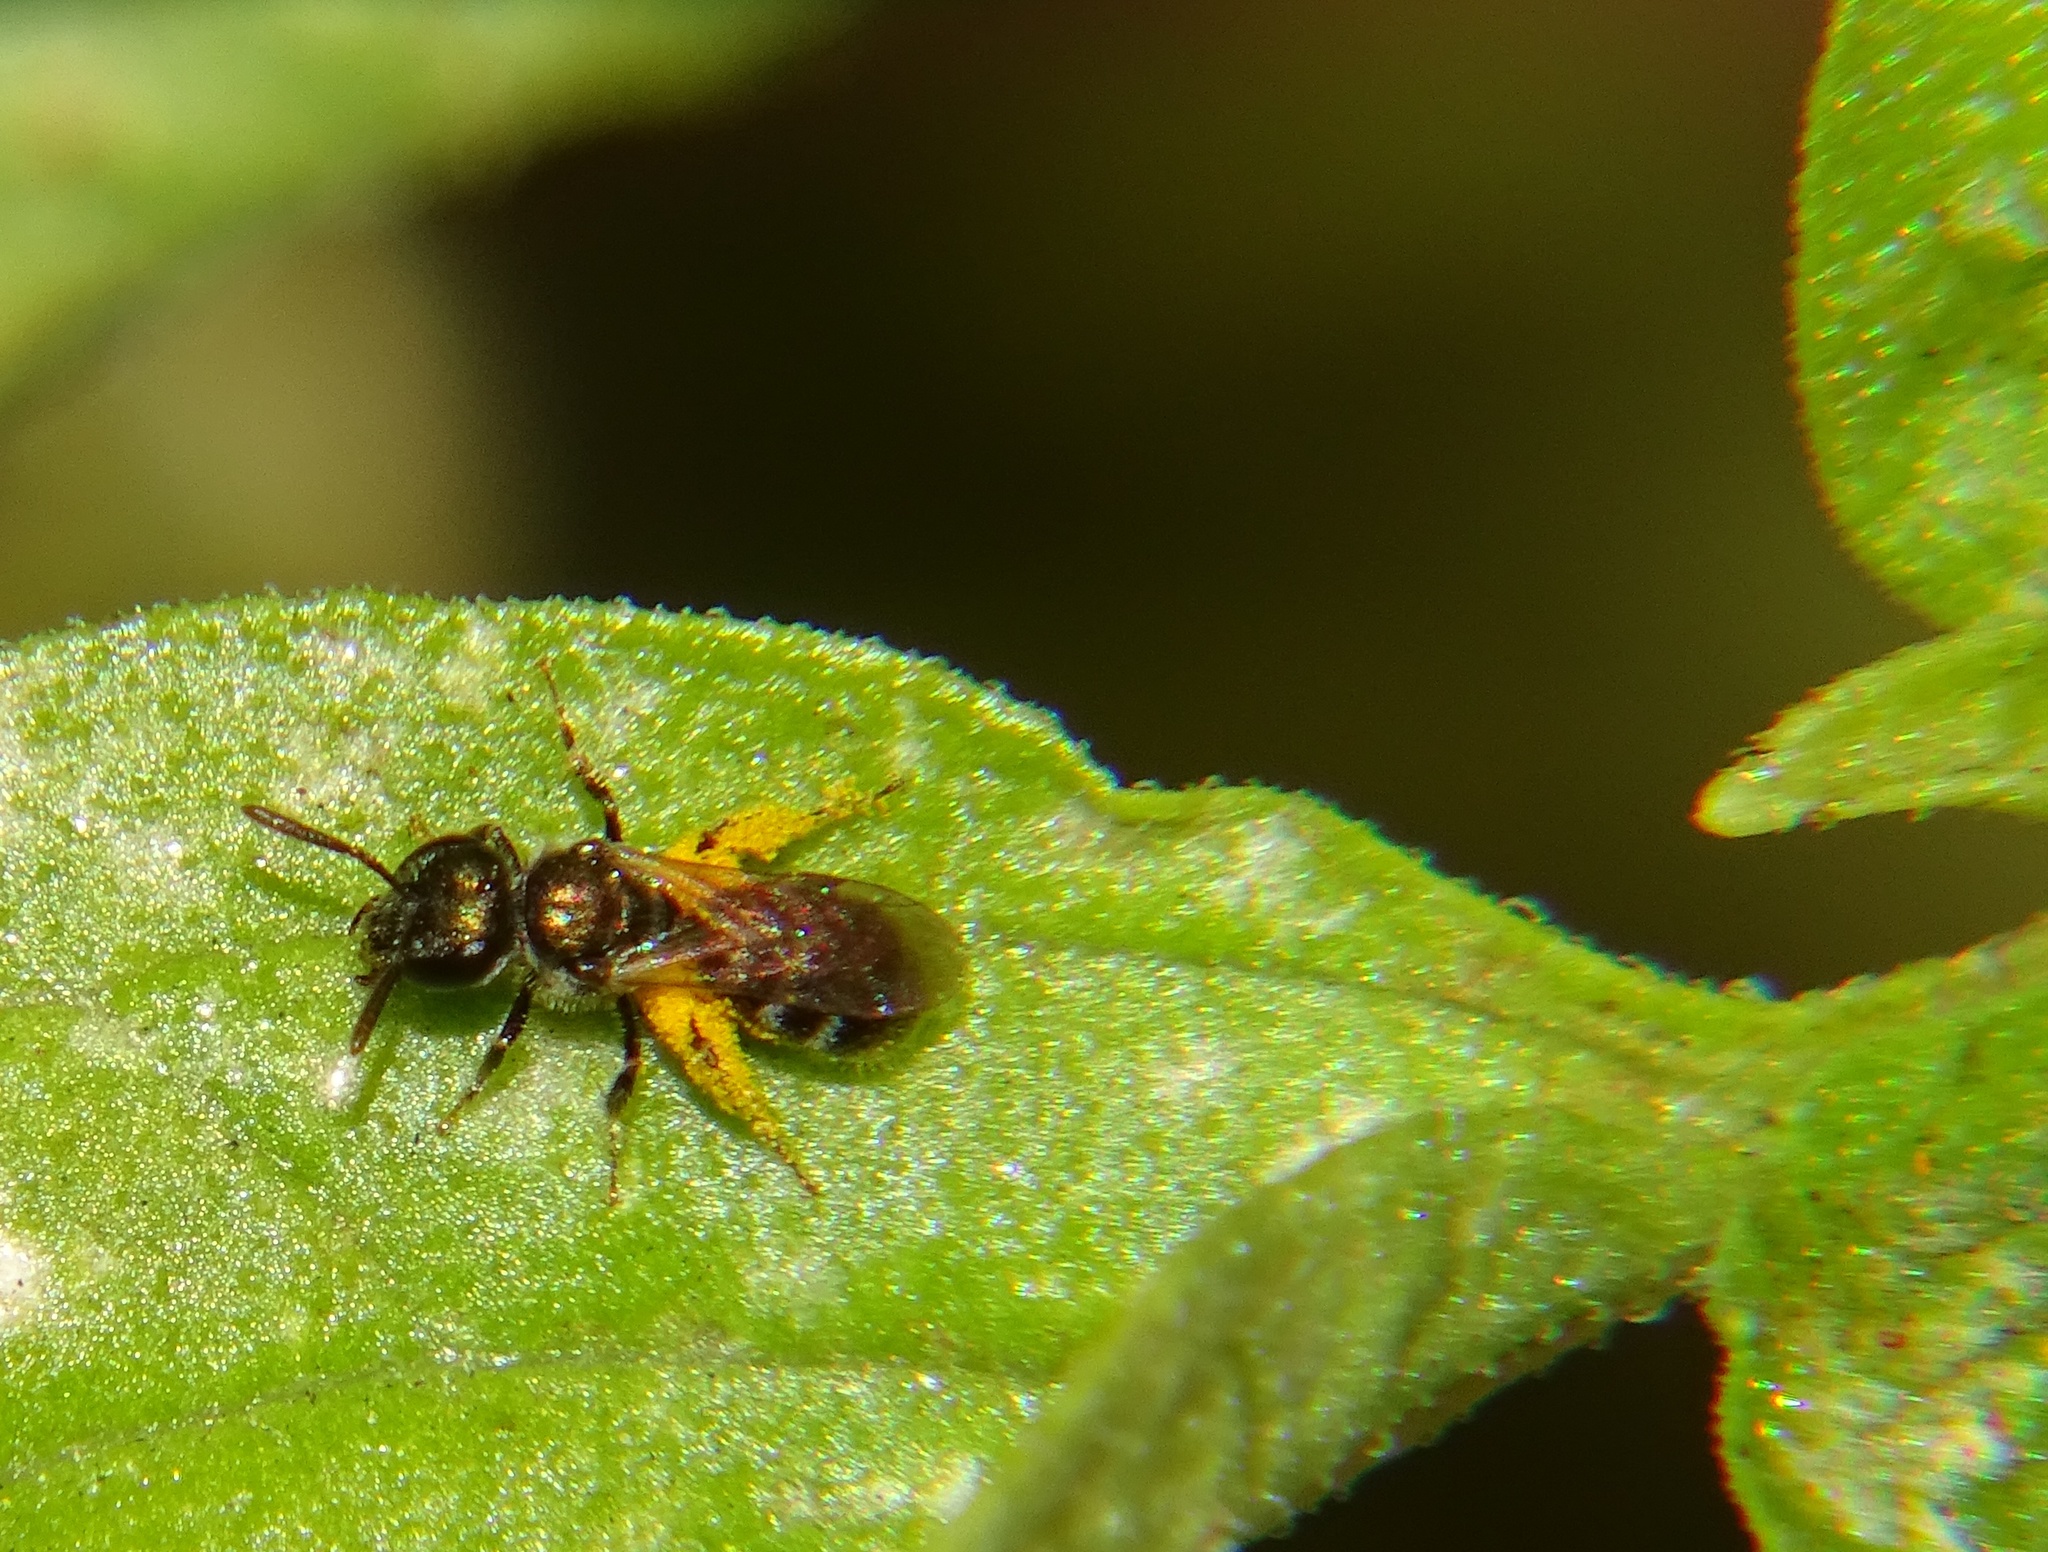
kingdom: Animalia
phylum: Arthropoda
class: Insecta
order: Hymenoptera
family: Halictidae
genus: Dialictus
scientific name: Dialictus
